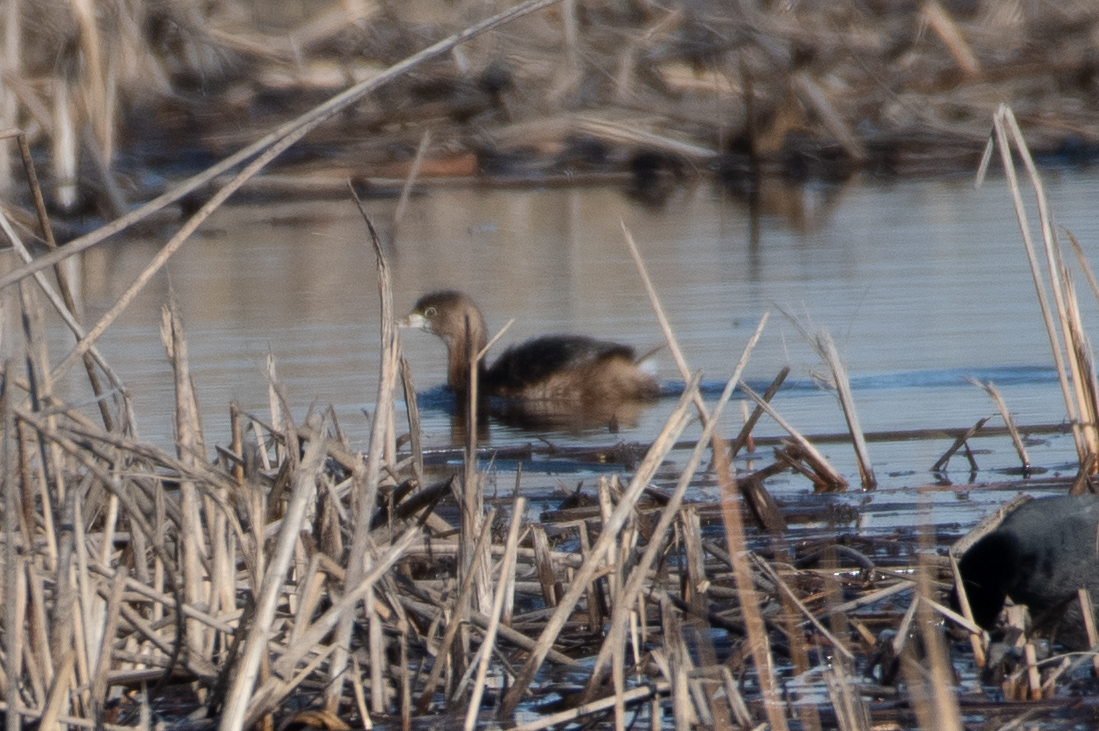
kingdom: Animalia
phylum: Chordata
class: Aves
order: Podicipediformes
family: Podicipedidae
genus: Podilymbus
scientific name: Podilymbus podiceps
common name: Pied-billed grebe
